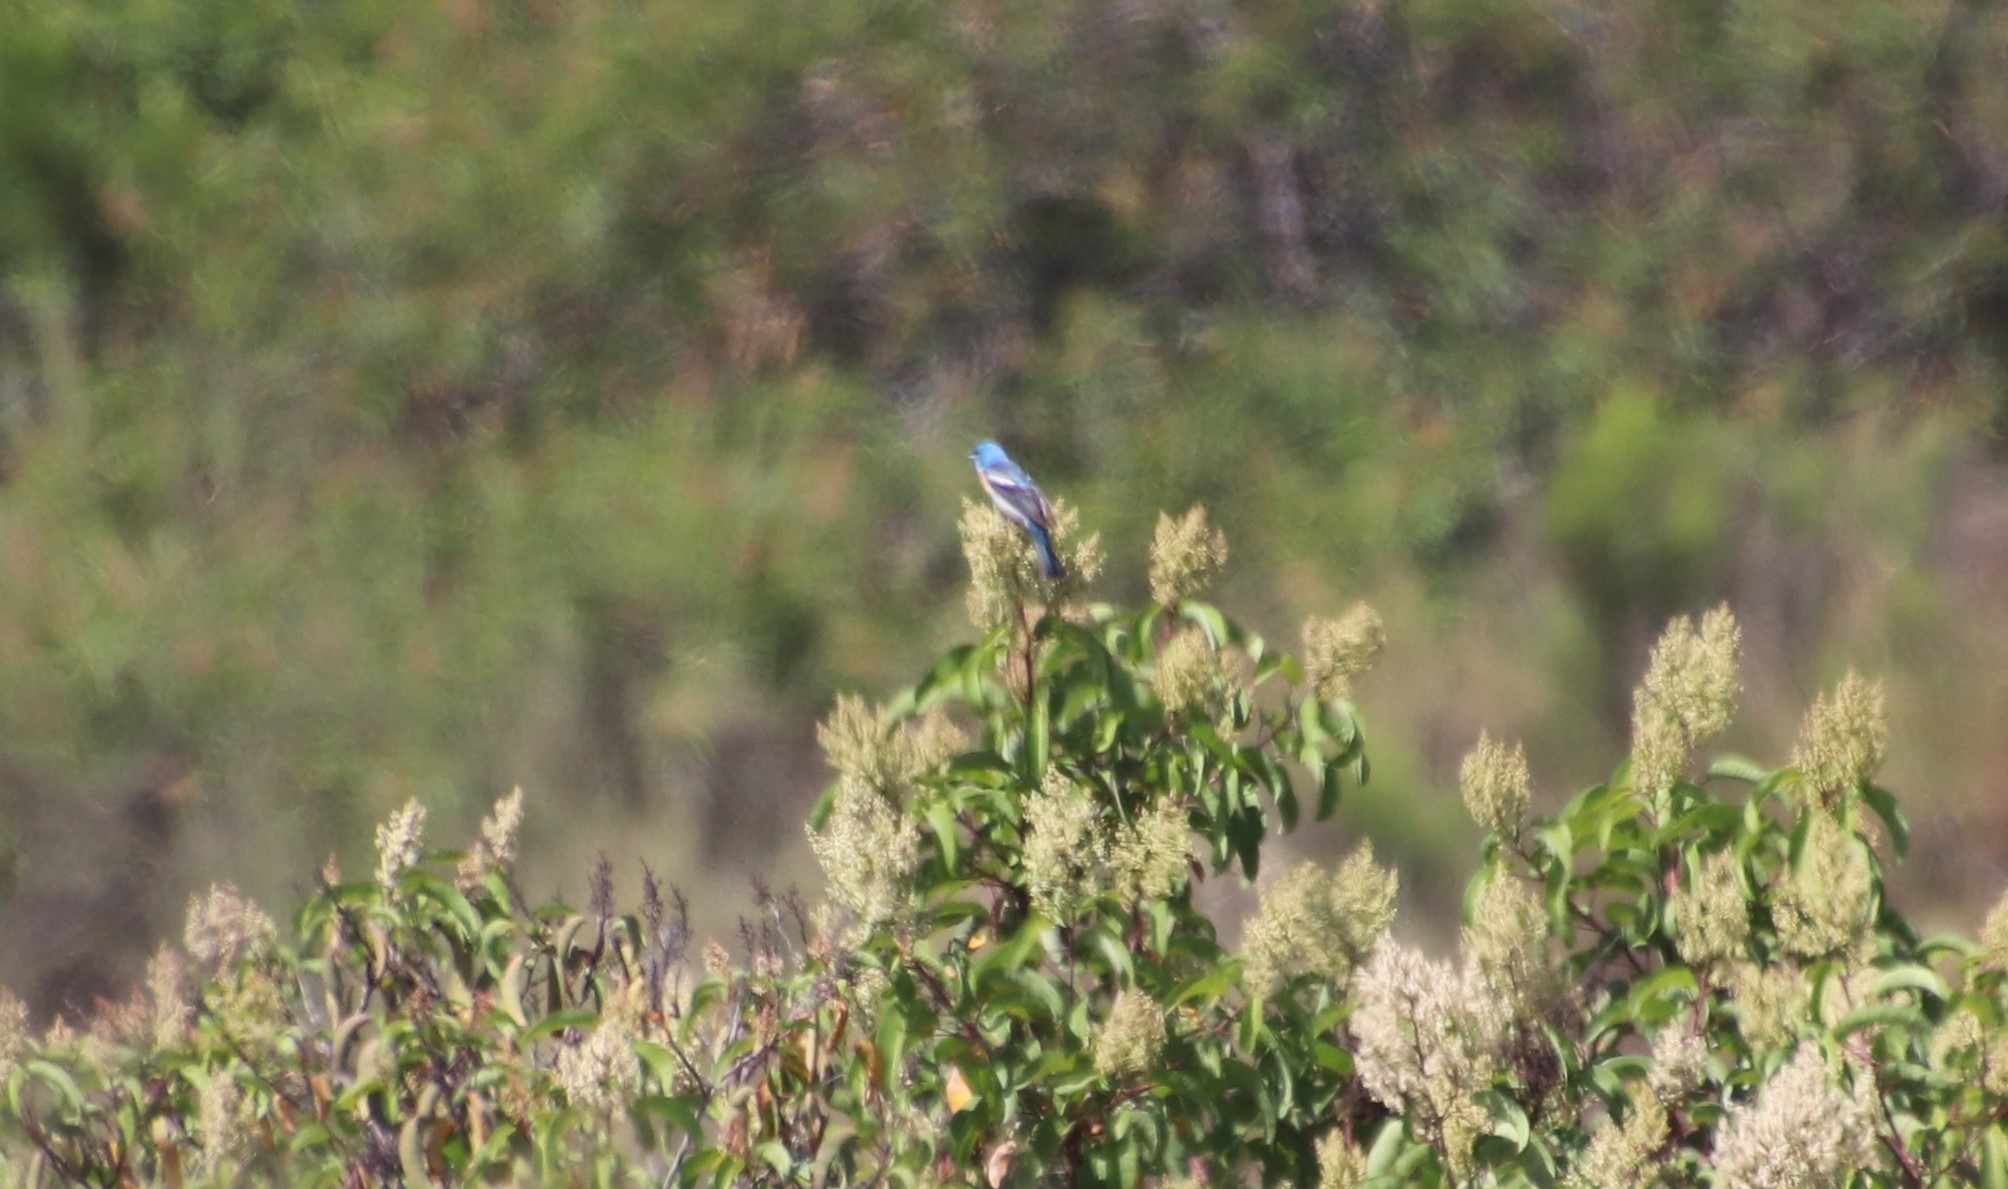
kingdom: Animalia
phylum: Chordata
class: Aves
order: Passeriformes
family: Cardinalidae
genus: Passerina
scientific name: Passerina amoena
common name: Lazuli bunting
